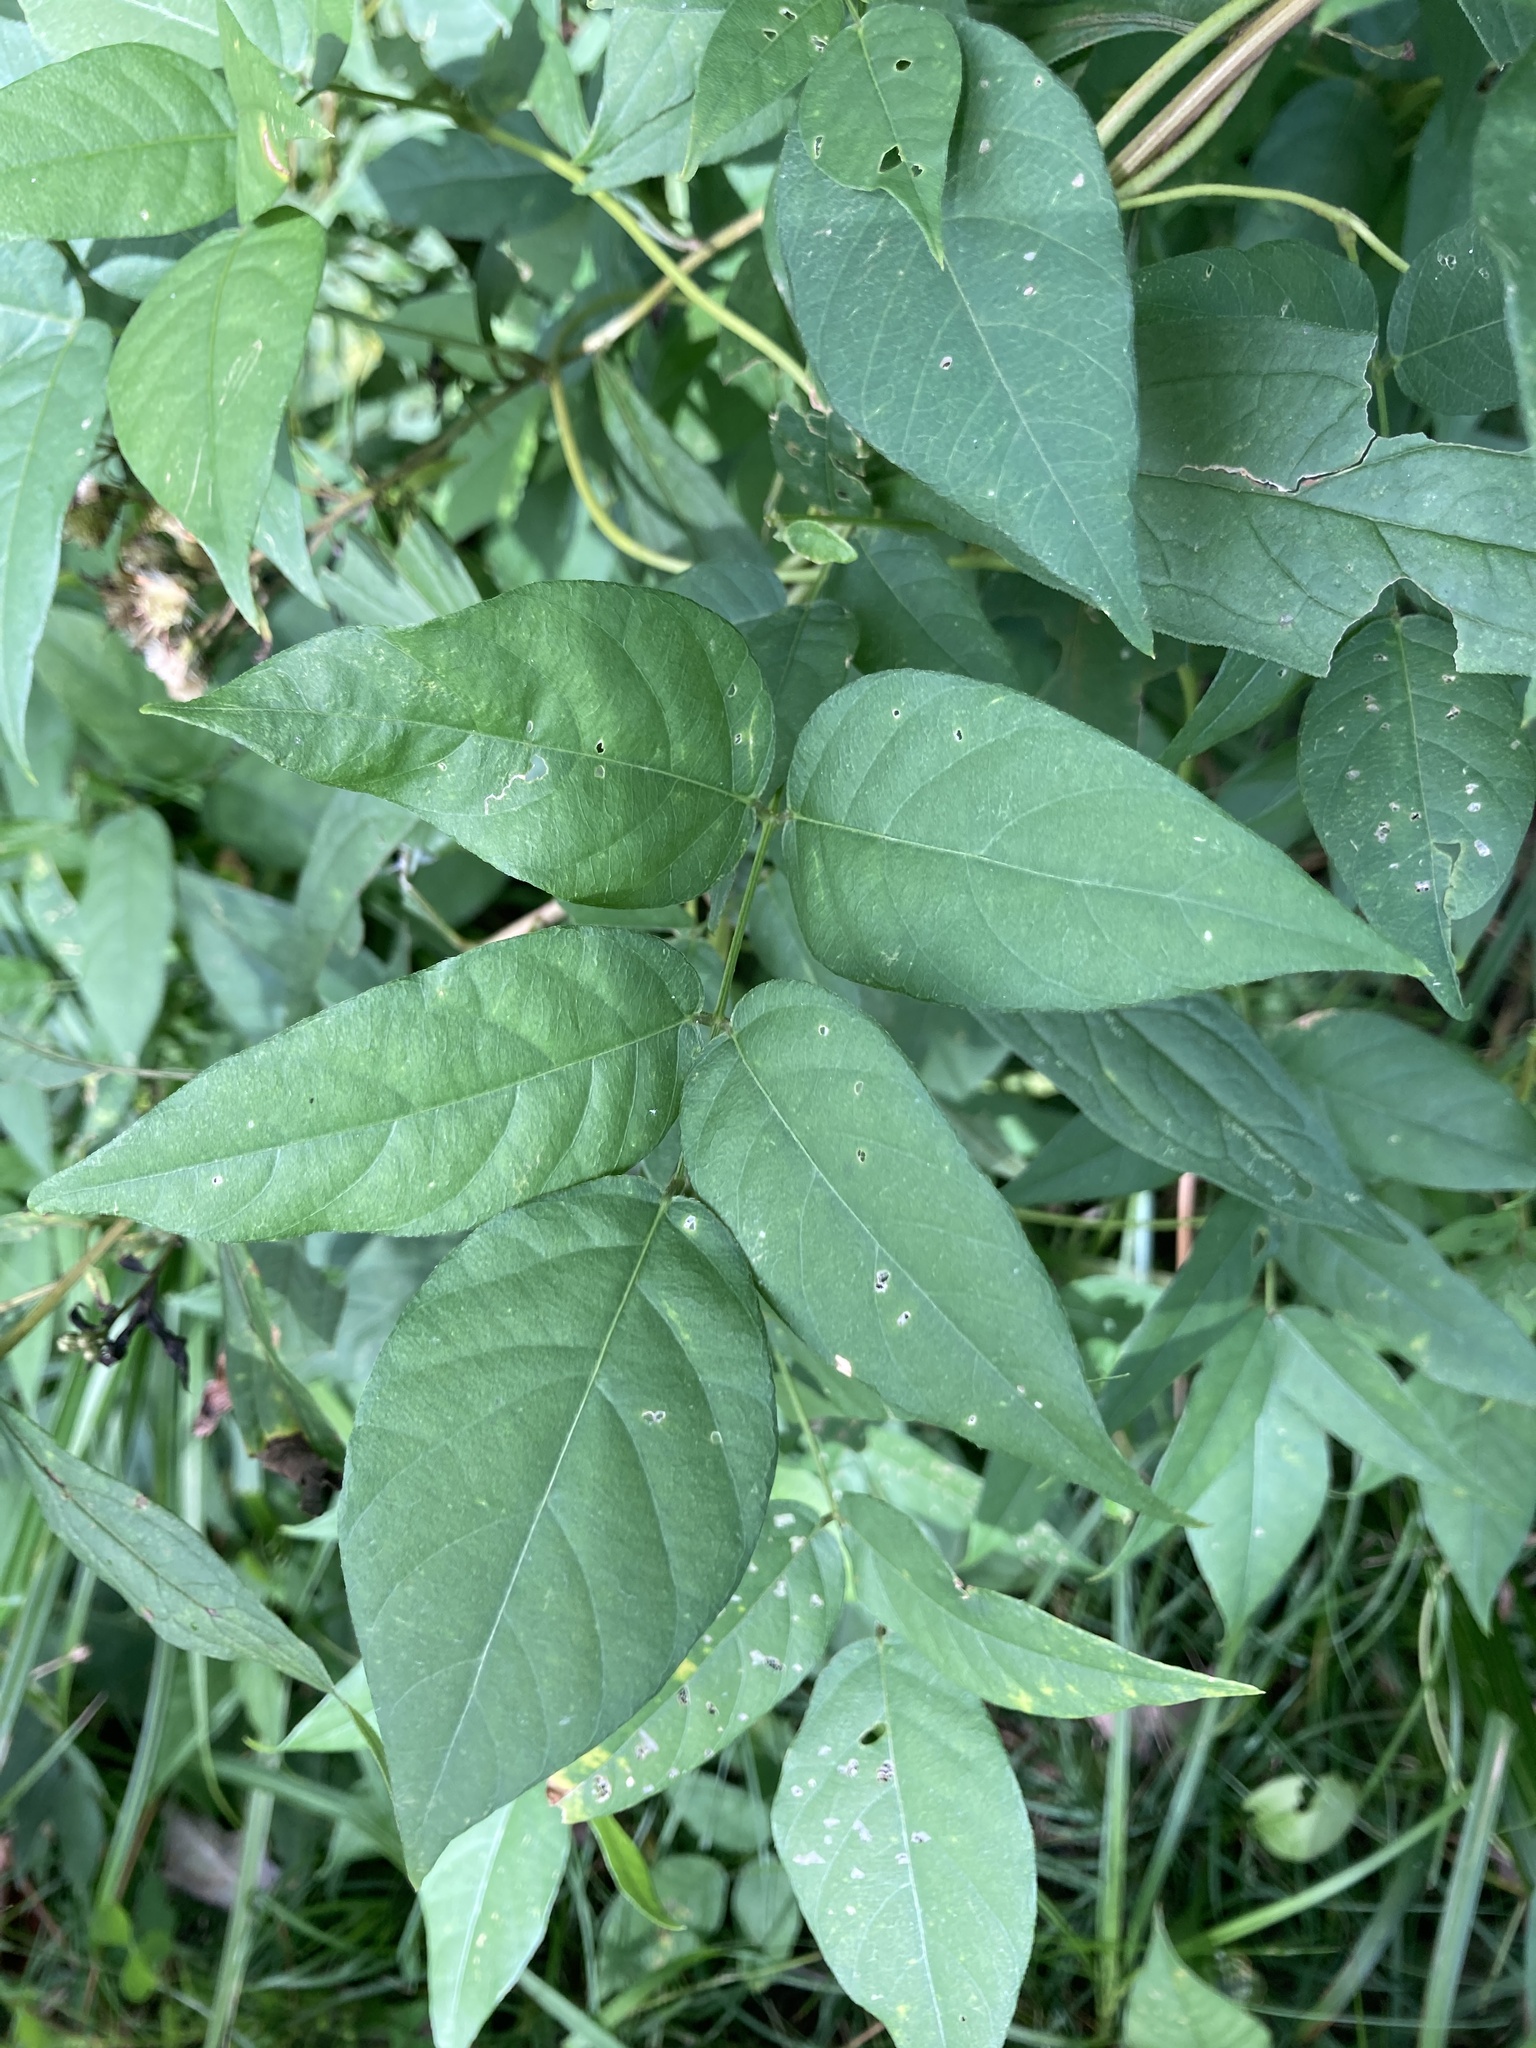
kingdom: Plantae
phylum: Tracheophyta
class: Magnoliopsida
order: Fabales
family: Fabaceae
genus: Apios
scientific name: Apios americana
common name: American potato-bean
